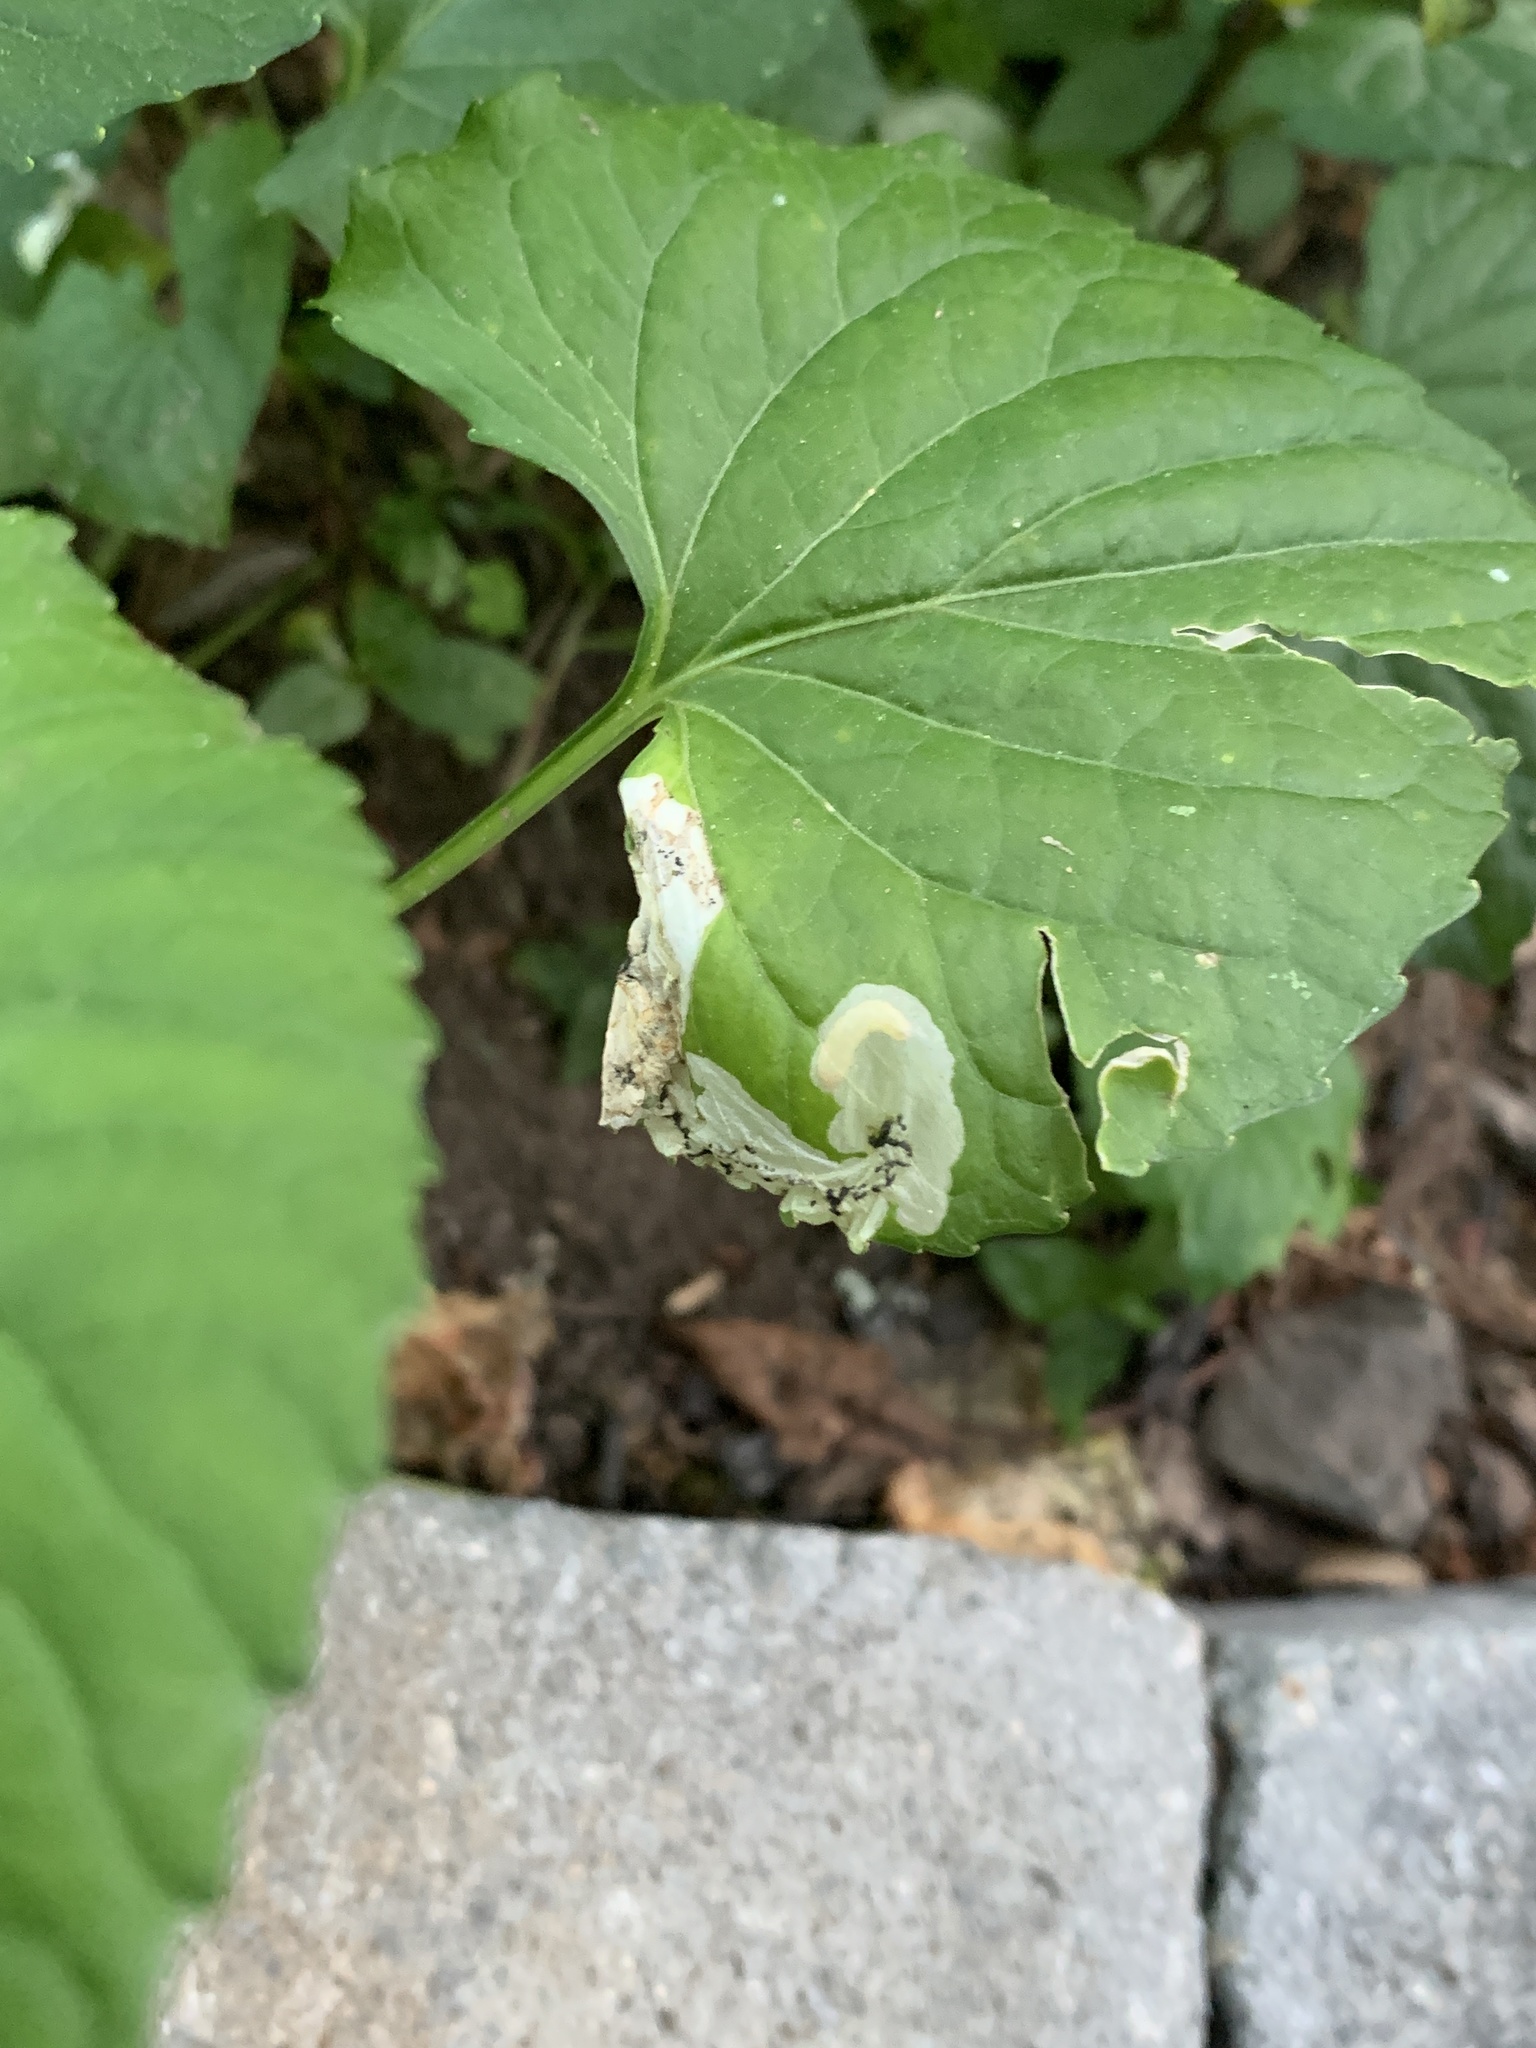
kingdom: Animalia
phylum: Arthropoda
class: Insecta
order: Hymenoptera
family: Tenthredinidae
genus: Nefusa
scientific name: Nefusa ambigua
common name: Violet leafmining sawfly
